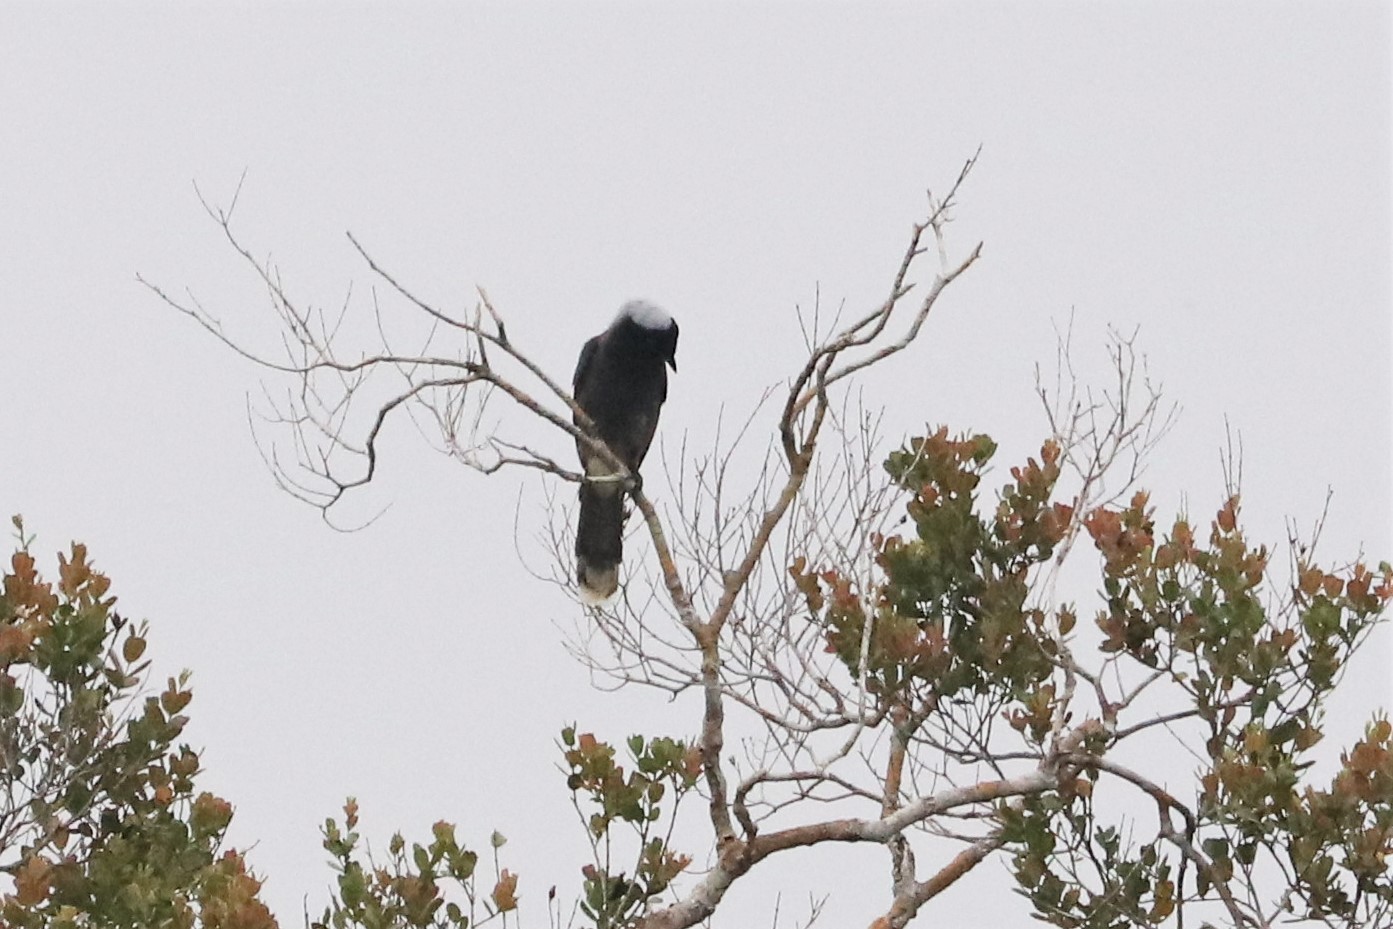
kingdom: Animalia
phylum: Chordata
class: Aves
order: Passeriformes
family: Corvidae
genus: Cyanocorax
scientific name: Cyanocorax heilprini
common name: Azure-naped jay
